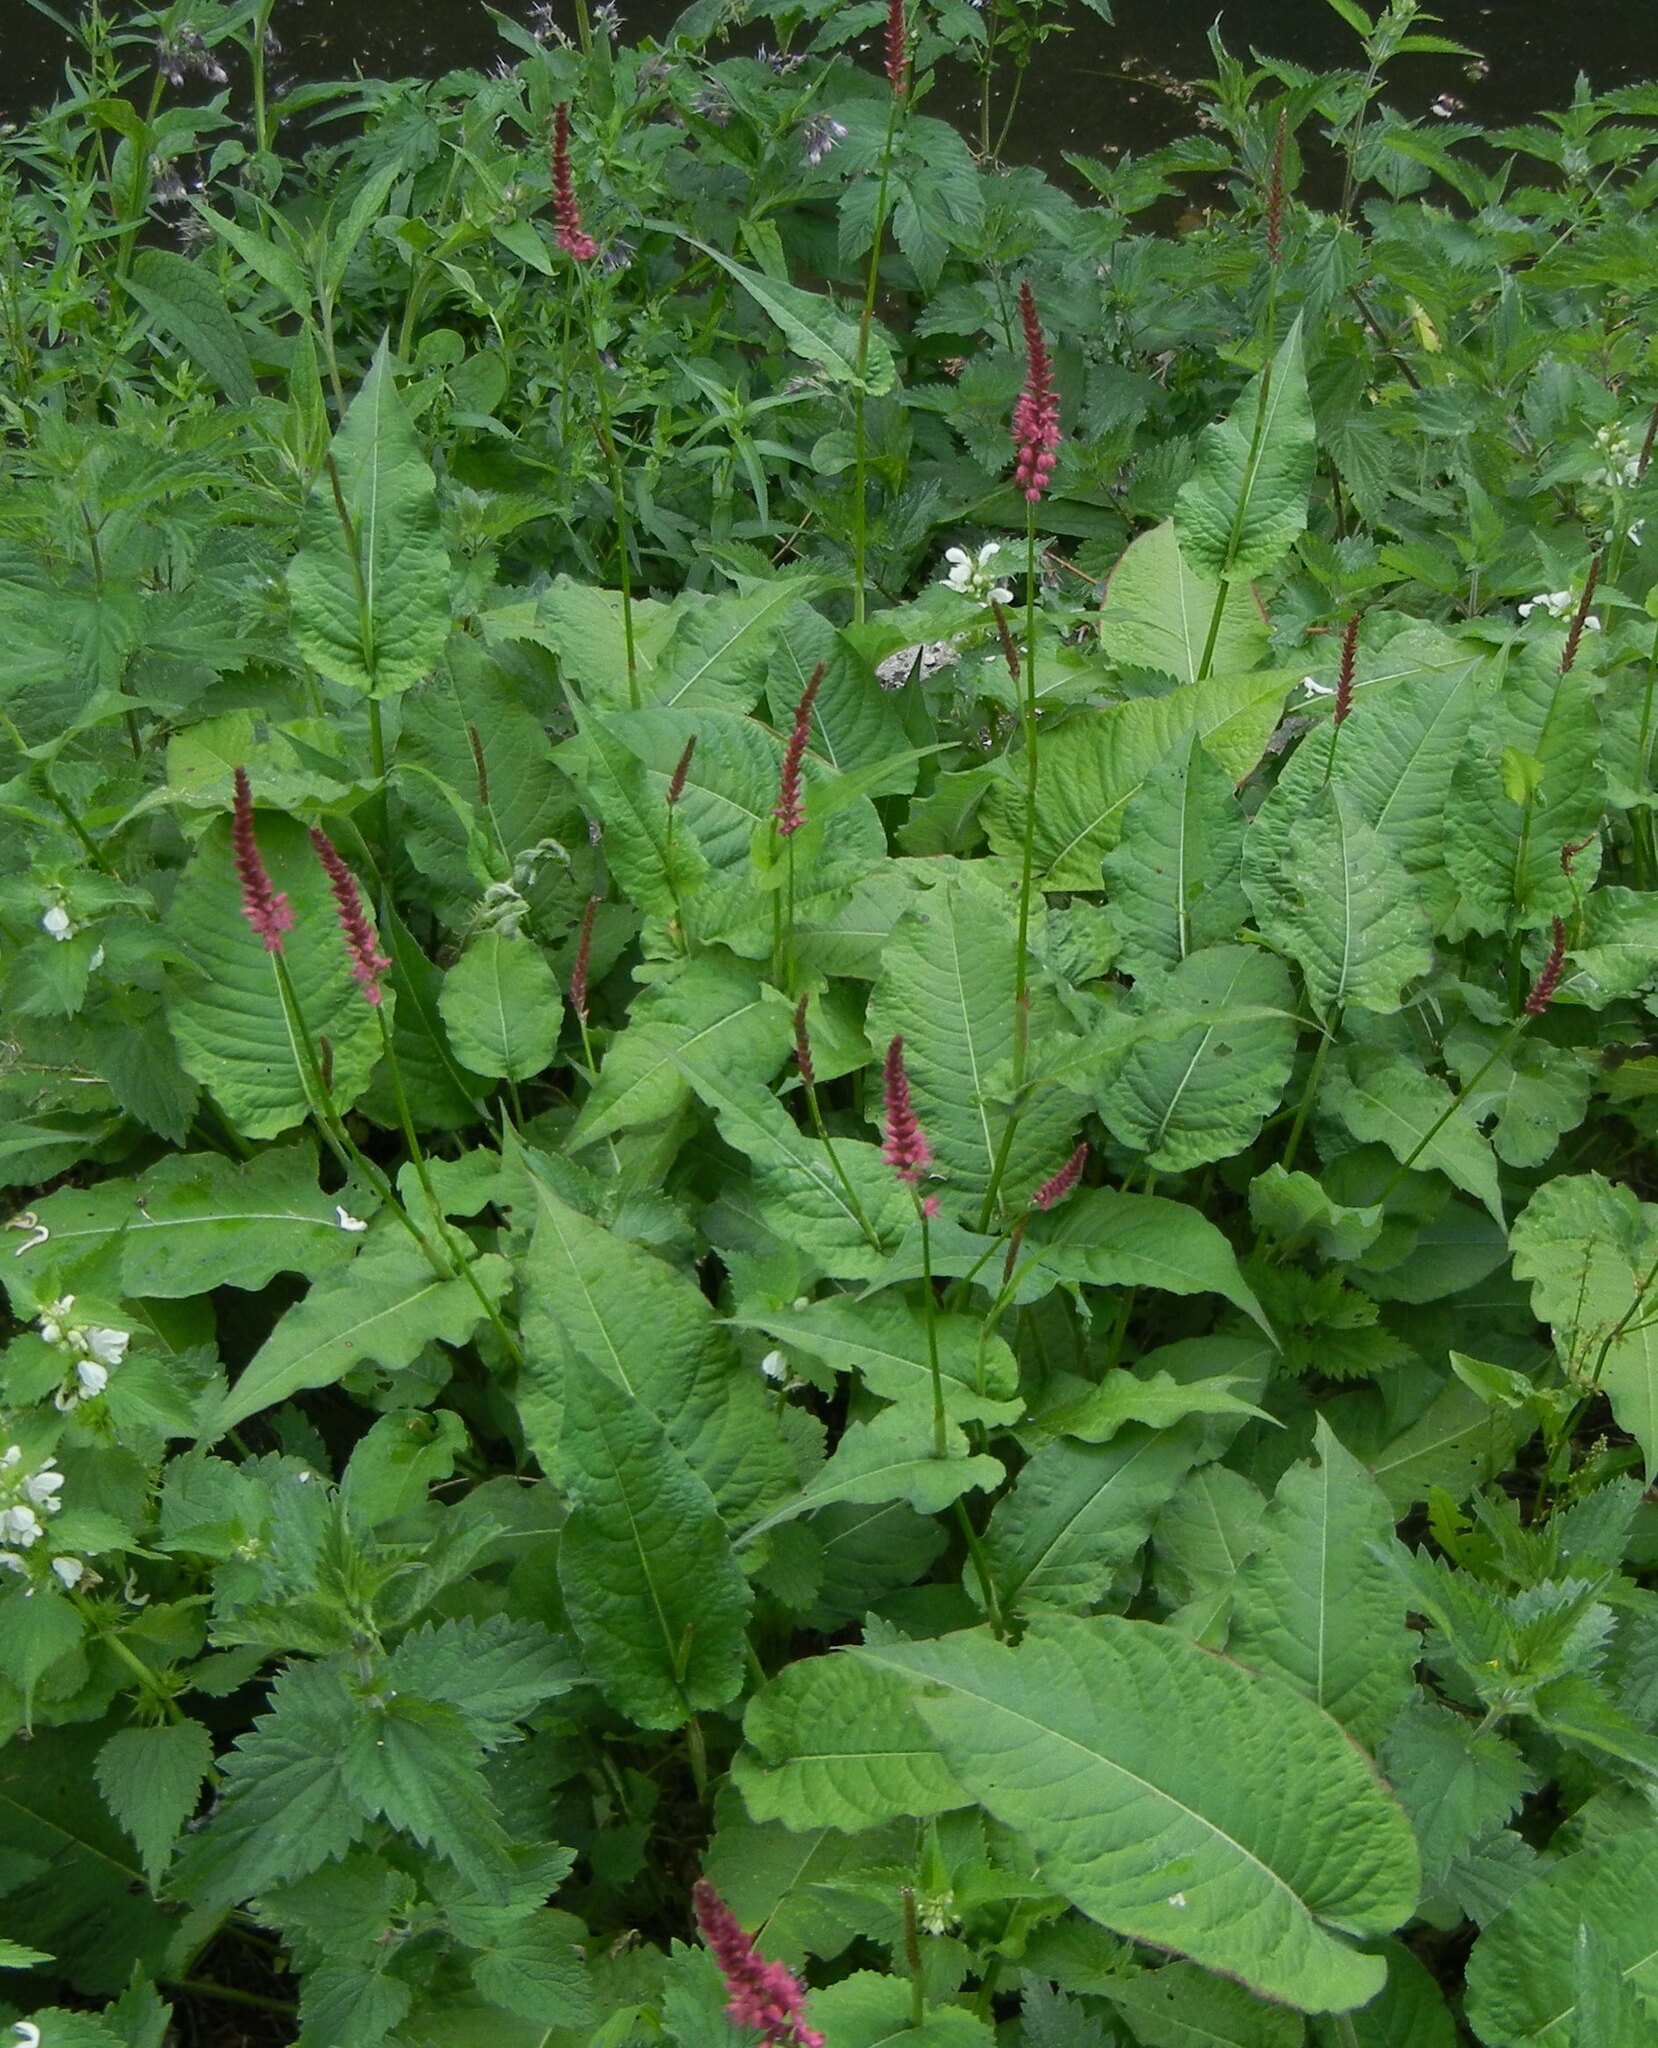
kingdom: Plantae
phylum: Tracheophyta
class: Magnoliopsida
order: Caryophyllales
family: Polygonaceae
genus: Bistorta
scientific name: Bistorta amplexicaulis
